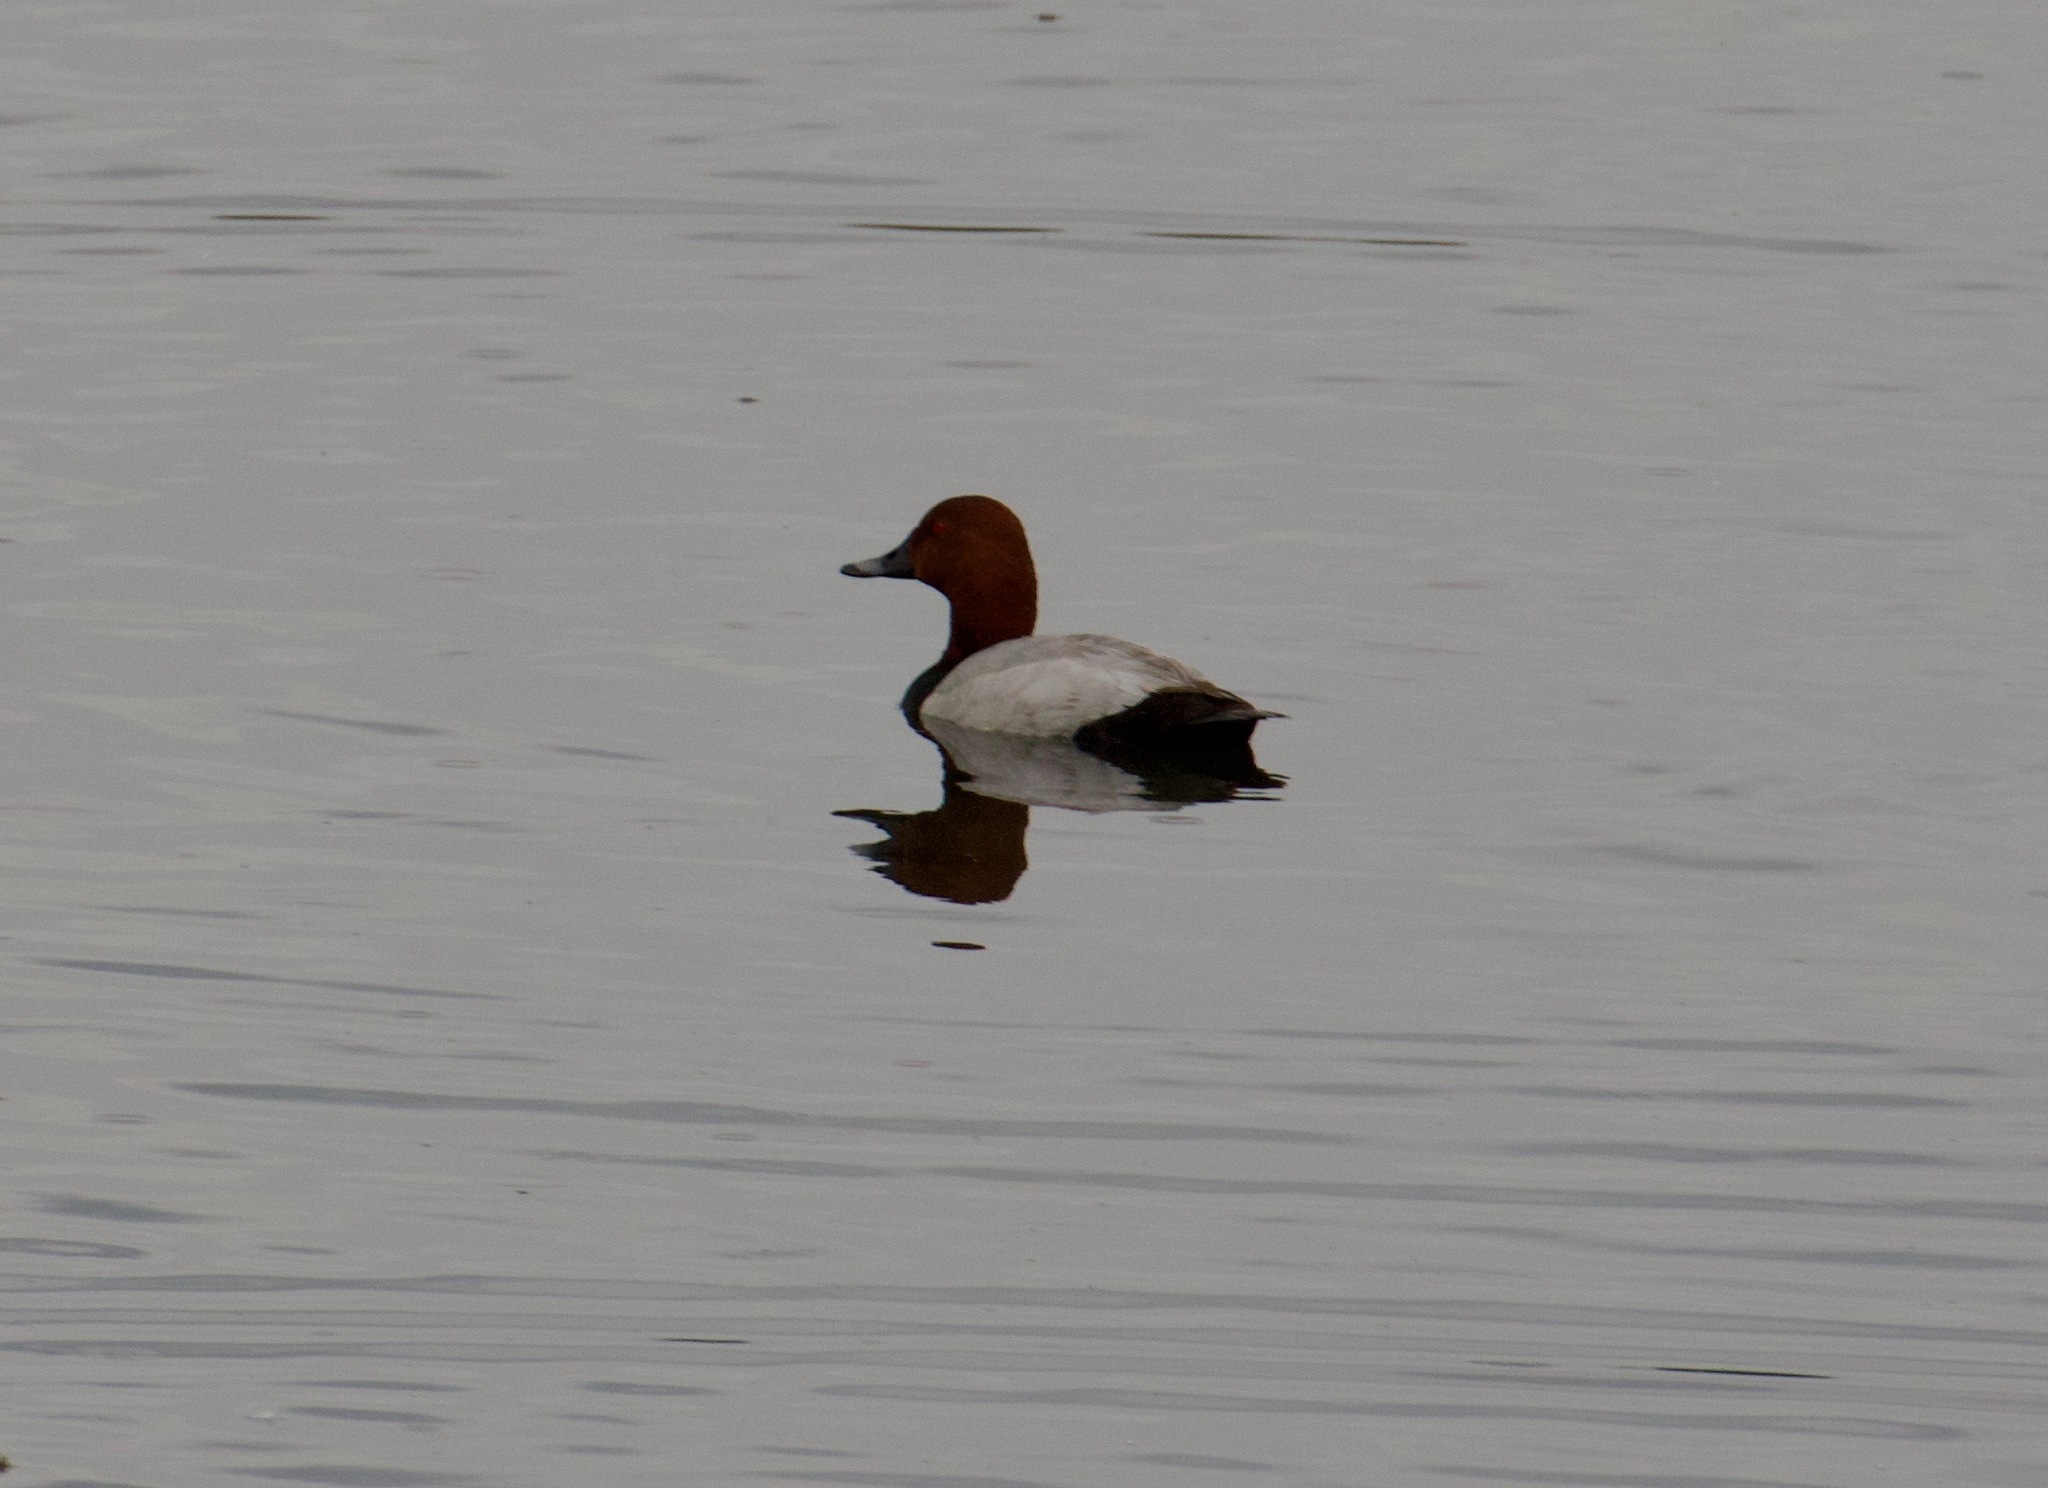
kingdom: Animalia
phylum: Chordata
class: Aves
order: Anseriformes
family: Anatidae
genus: Aythya
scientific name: Aythya ferina
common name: Common pochard
